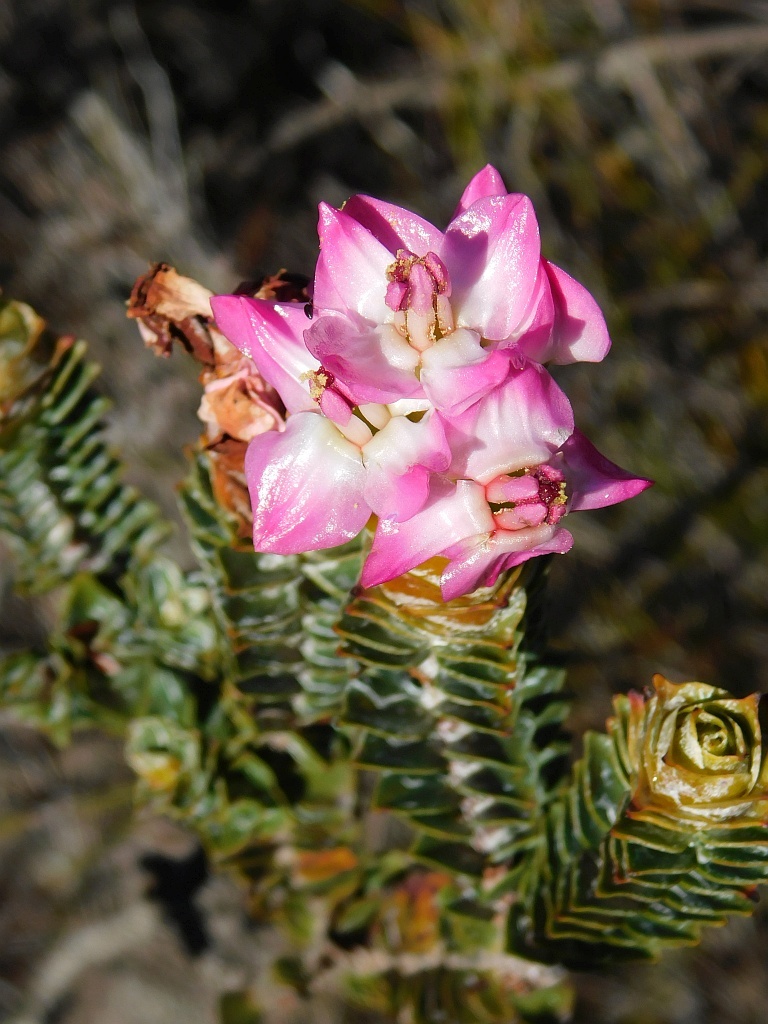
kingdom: Plantae
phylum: Tracheophyta
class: Magnoliopsida
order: Myrtales
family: Penaeaceae
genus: Saltera
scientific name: Saltera sarcocolla
